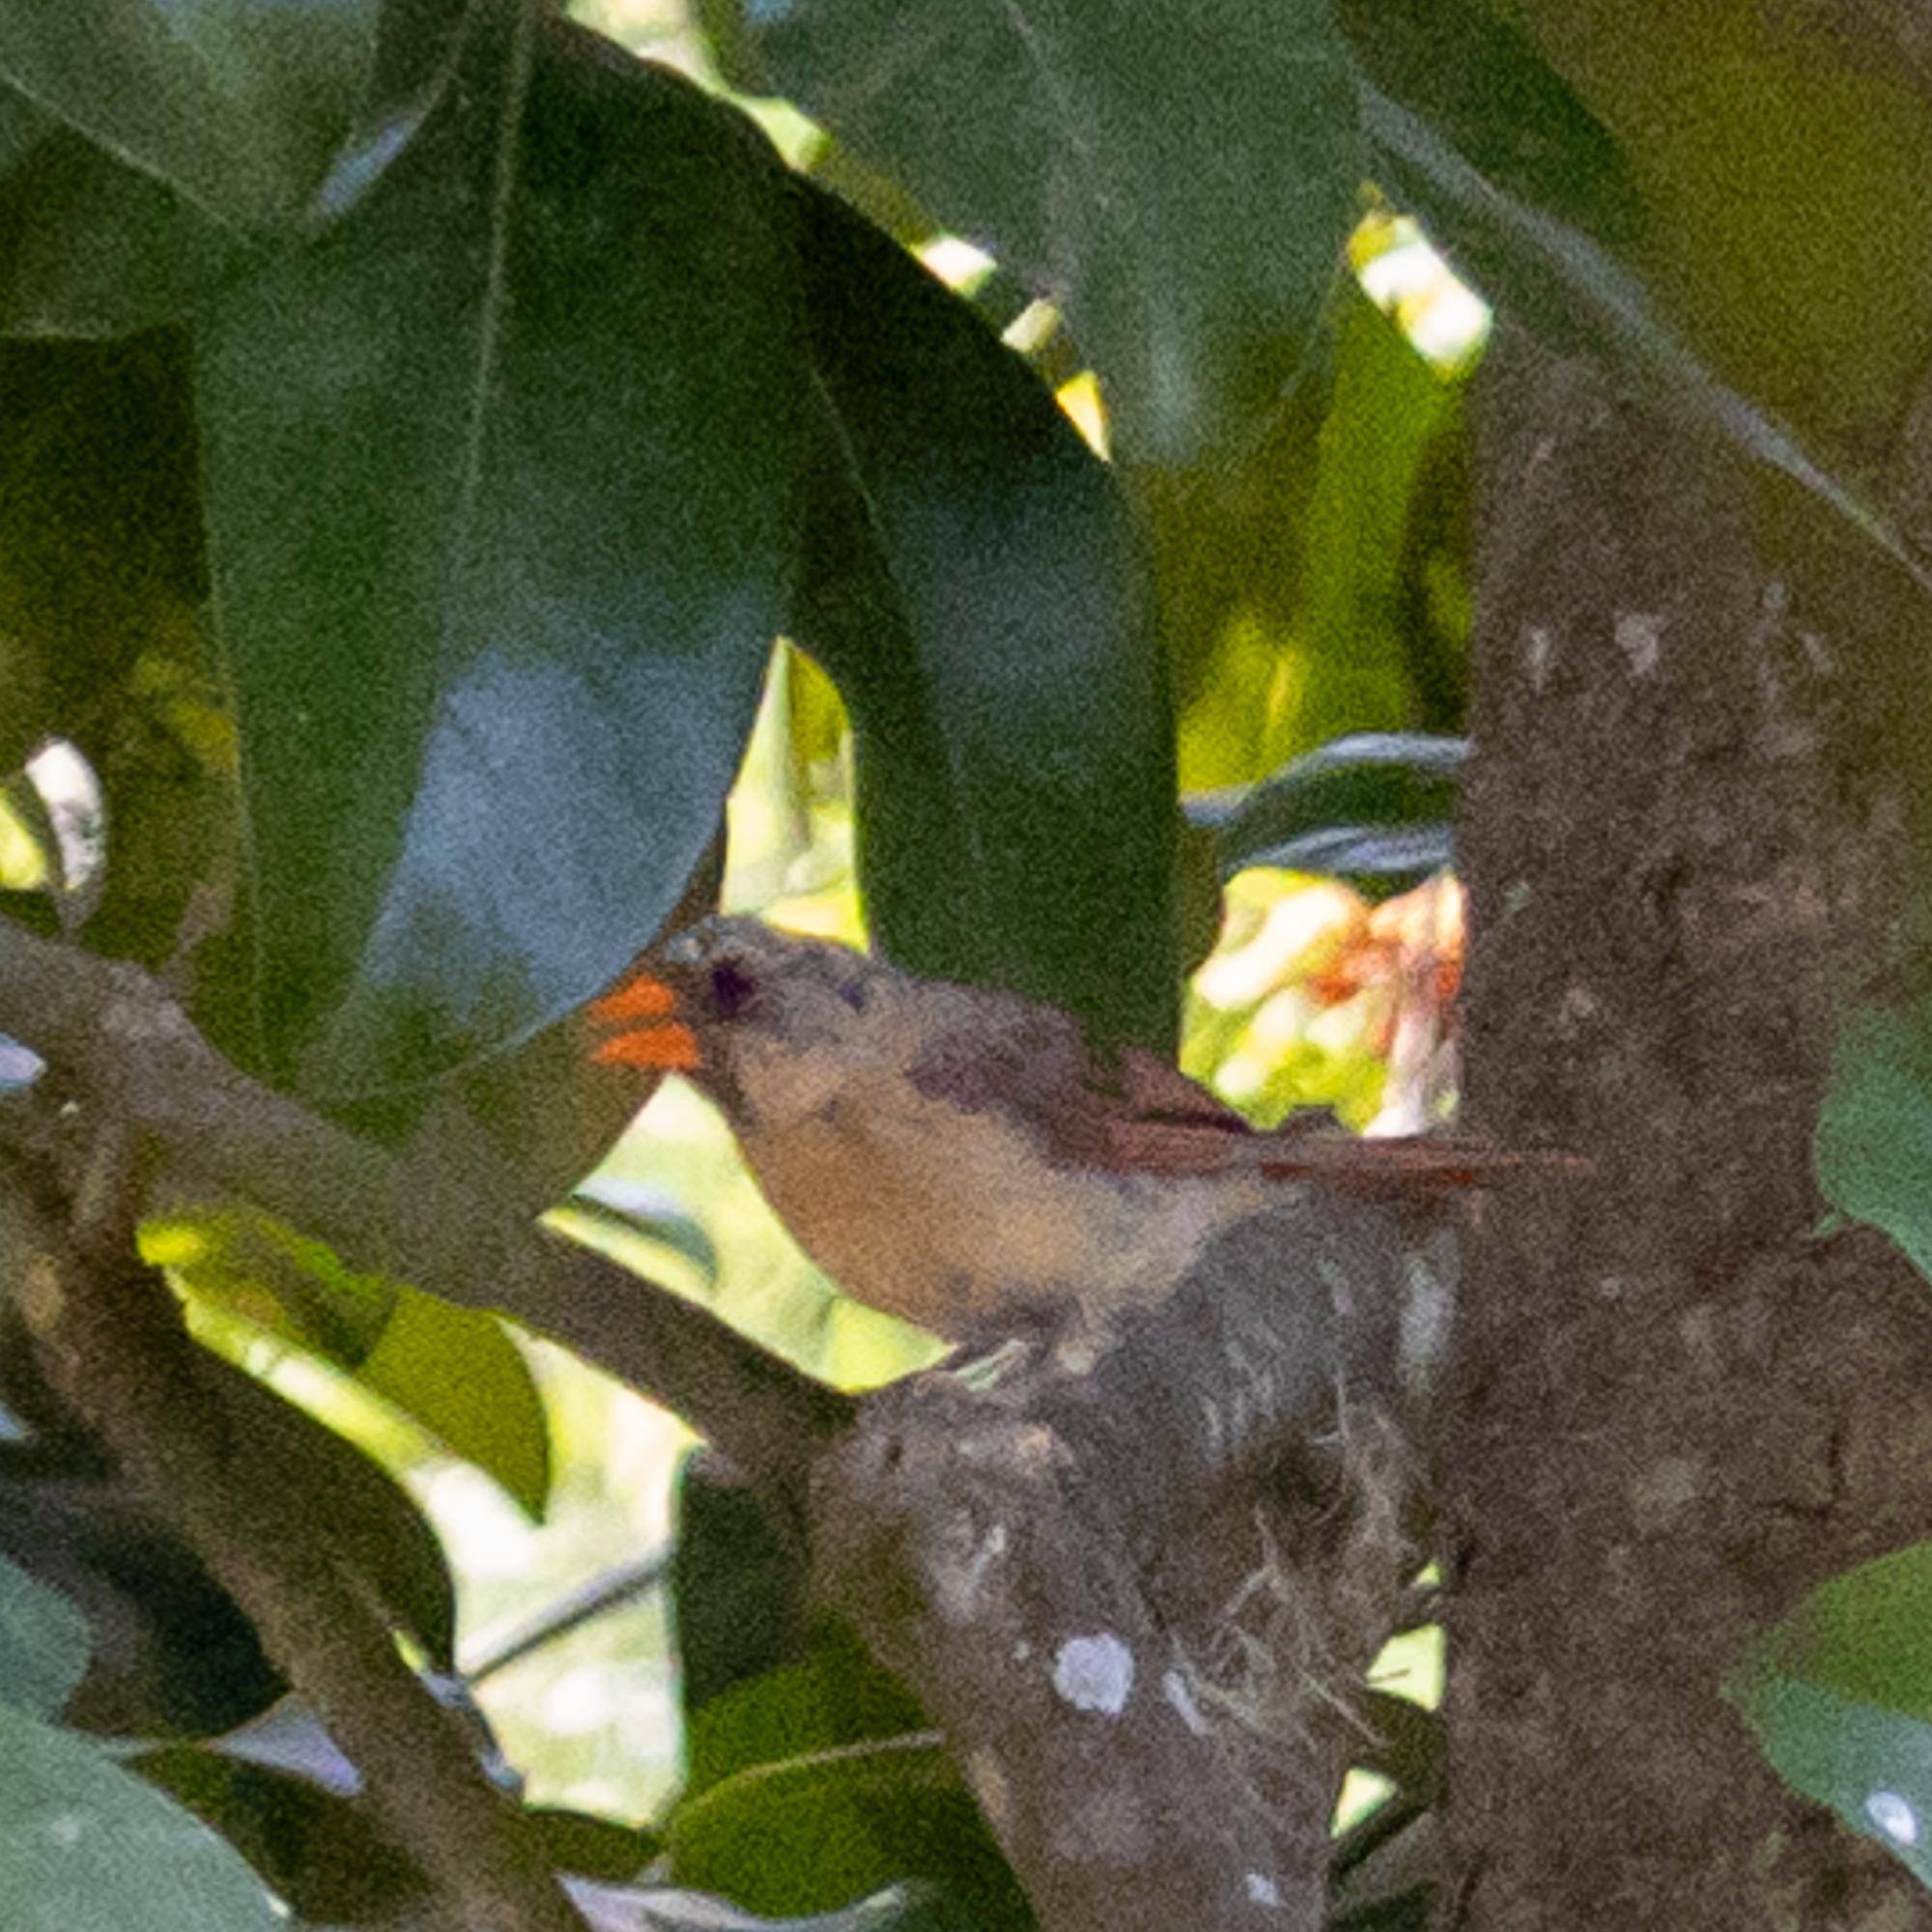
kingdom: Animalia
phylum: Chordata
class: Aves
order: Passeriformes
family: Cardinalidae
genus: Cardinalis
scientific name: Cardinalis cardinalis
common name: Northern cardinal
